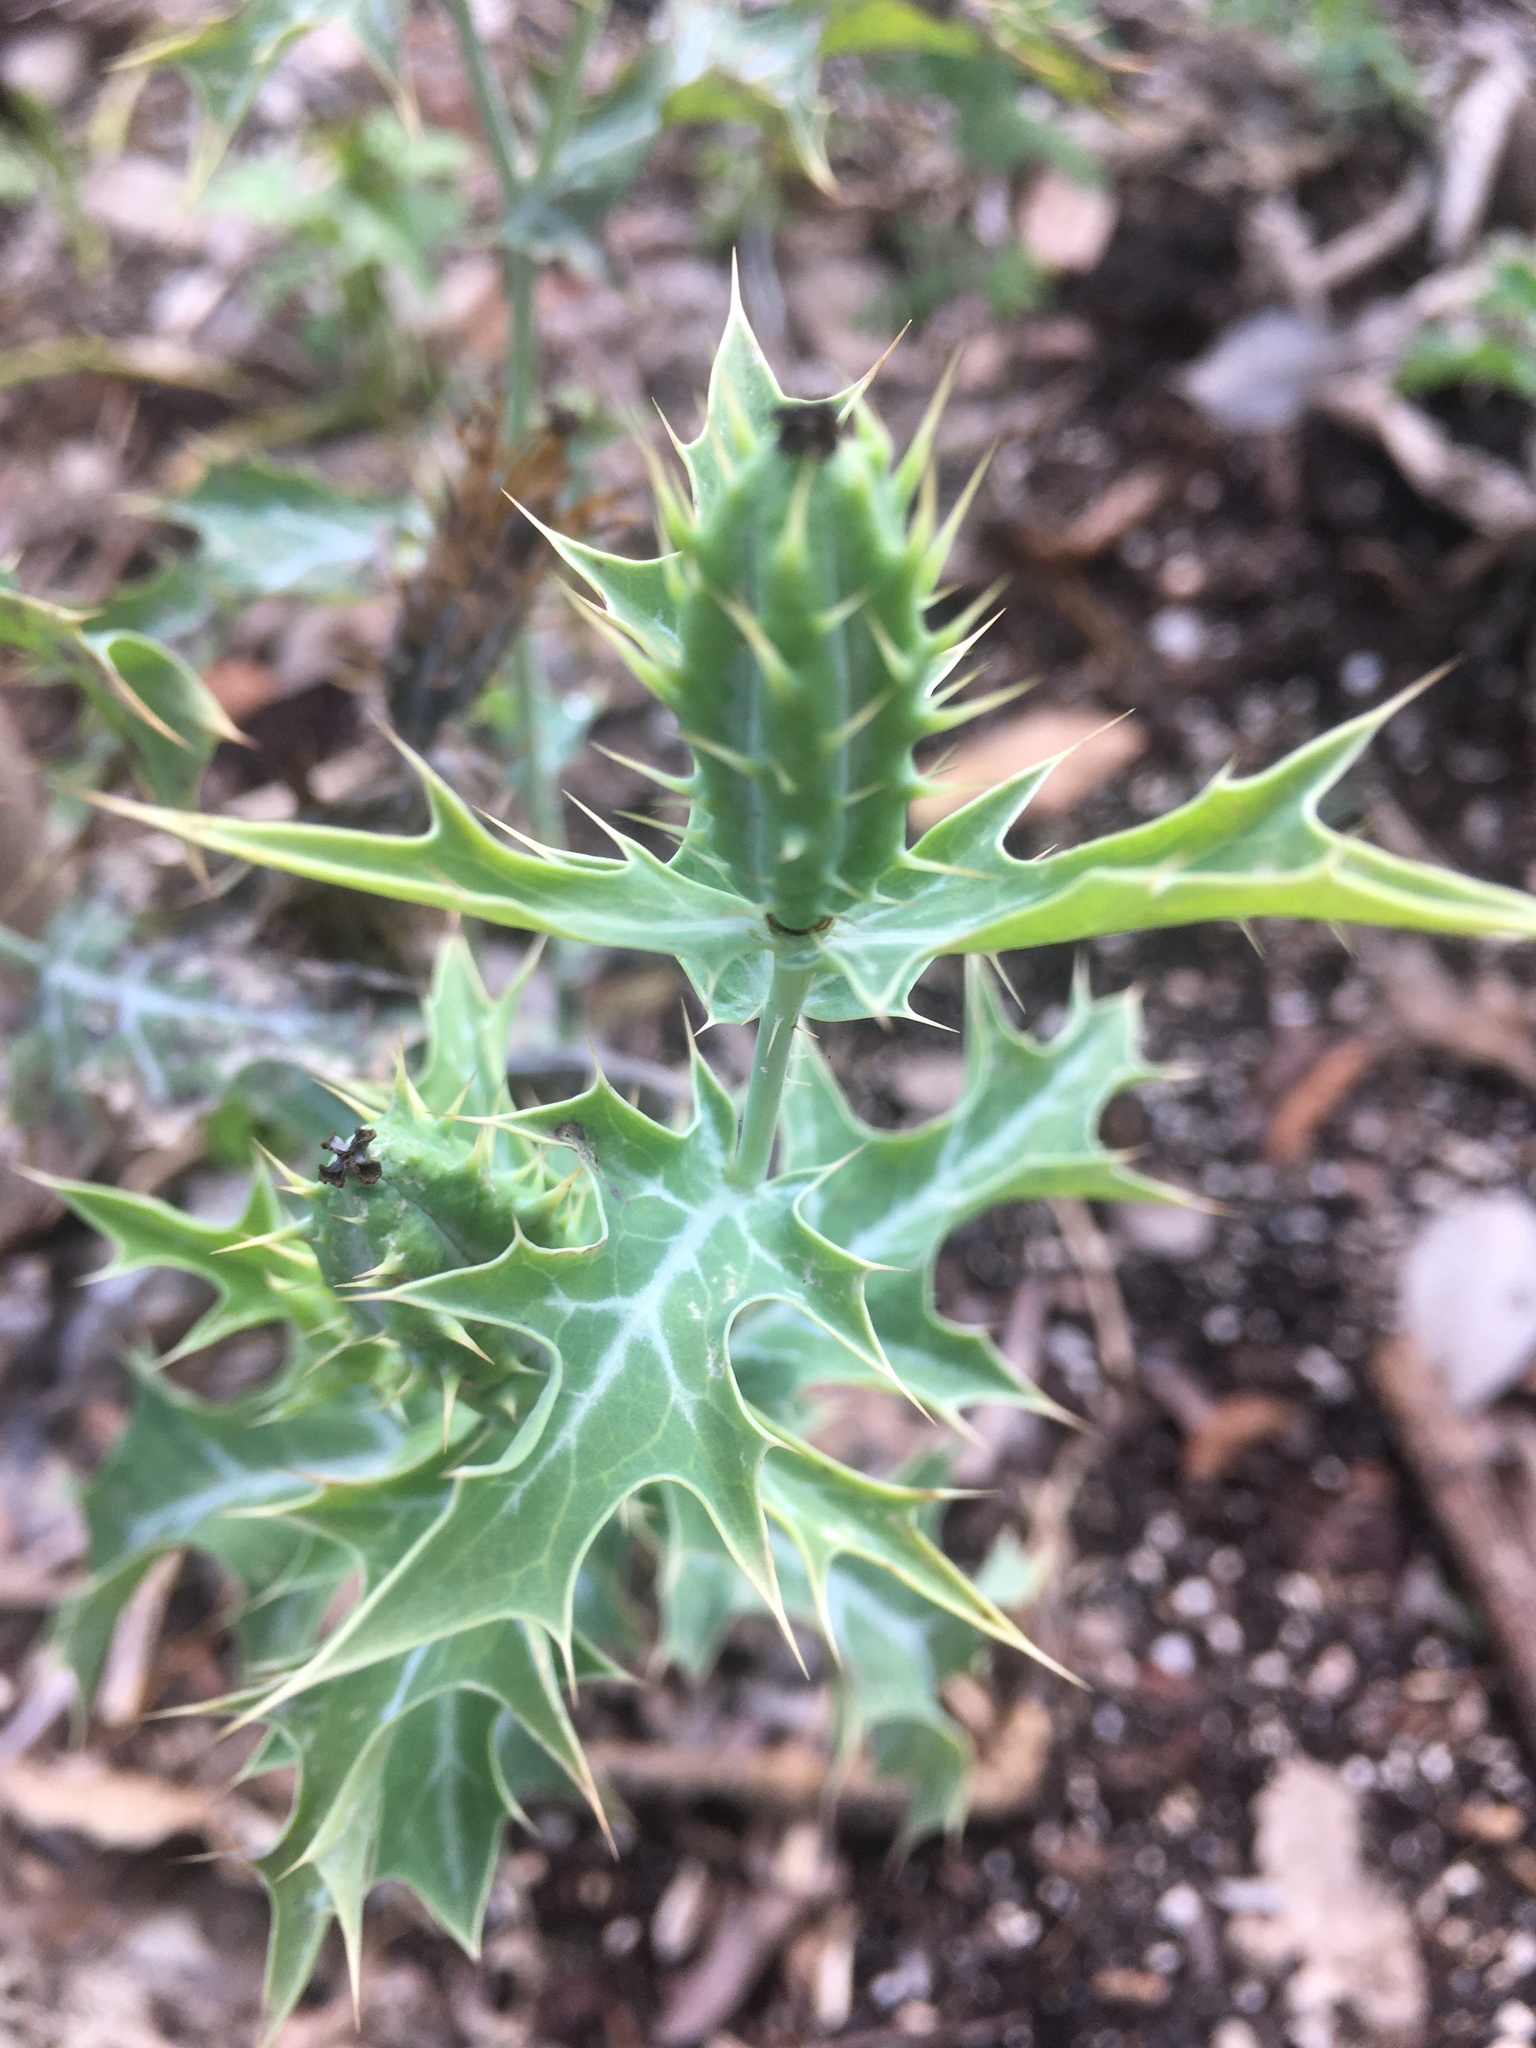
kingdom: Plantae
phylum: Tracheophyta
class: Magnoliopsida
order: Ranunculales
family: Papaveraceae
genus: Argemone
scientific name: Argemone mexicana
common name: Mexican poppy
